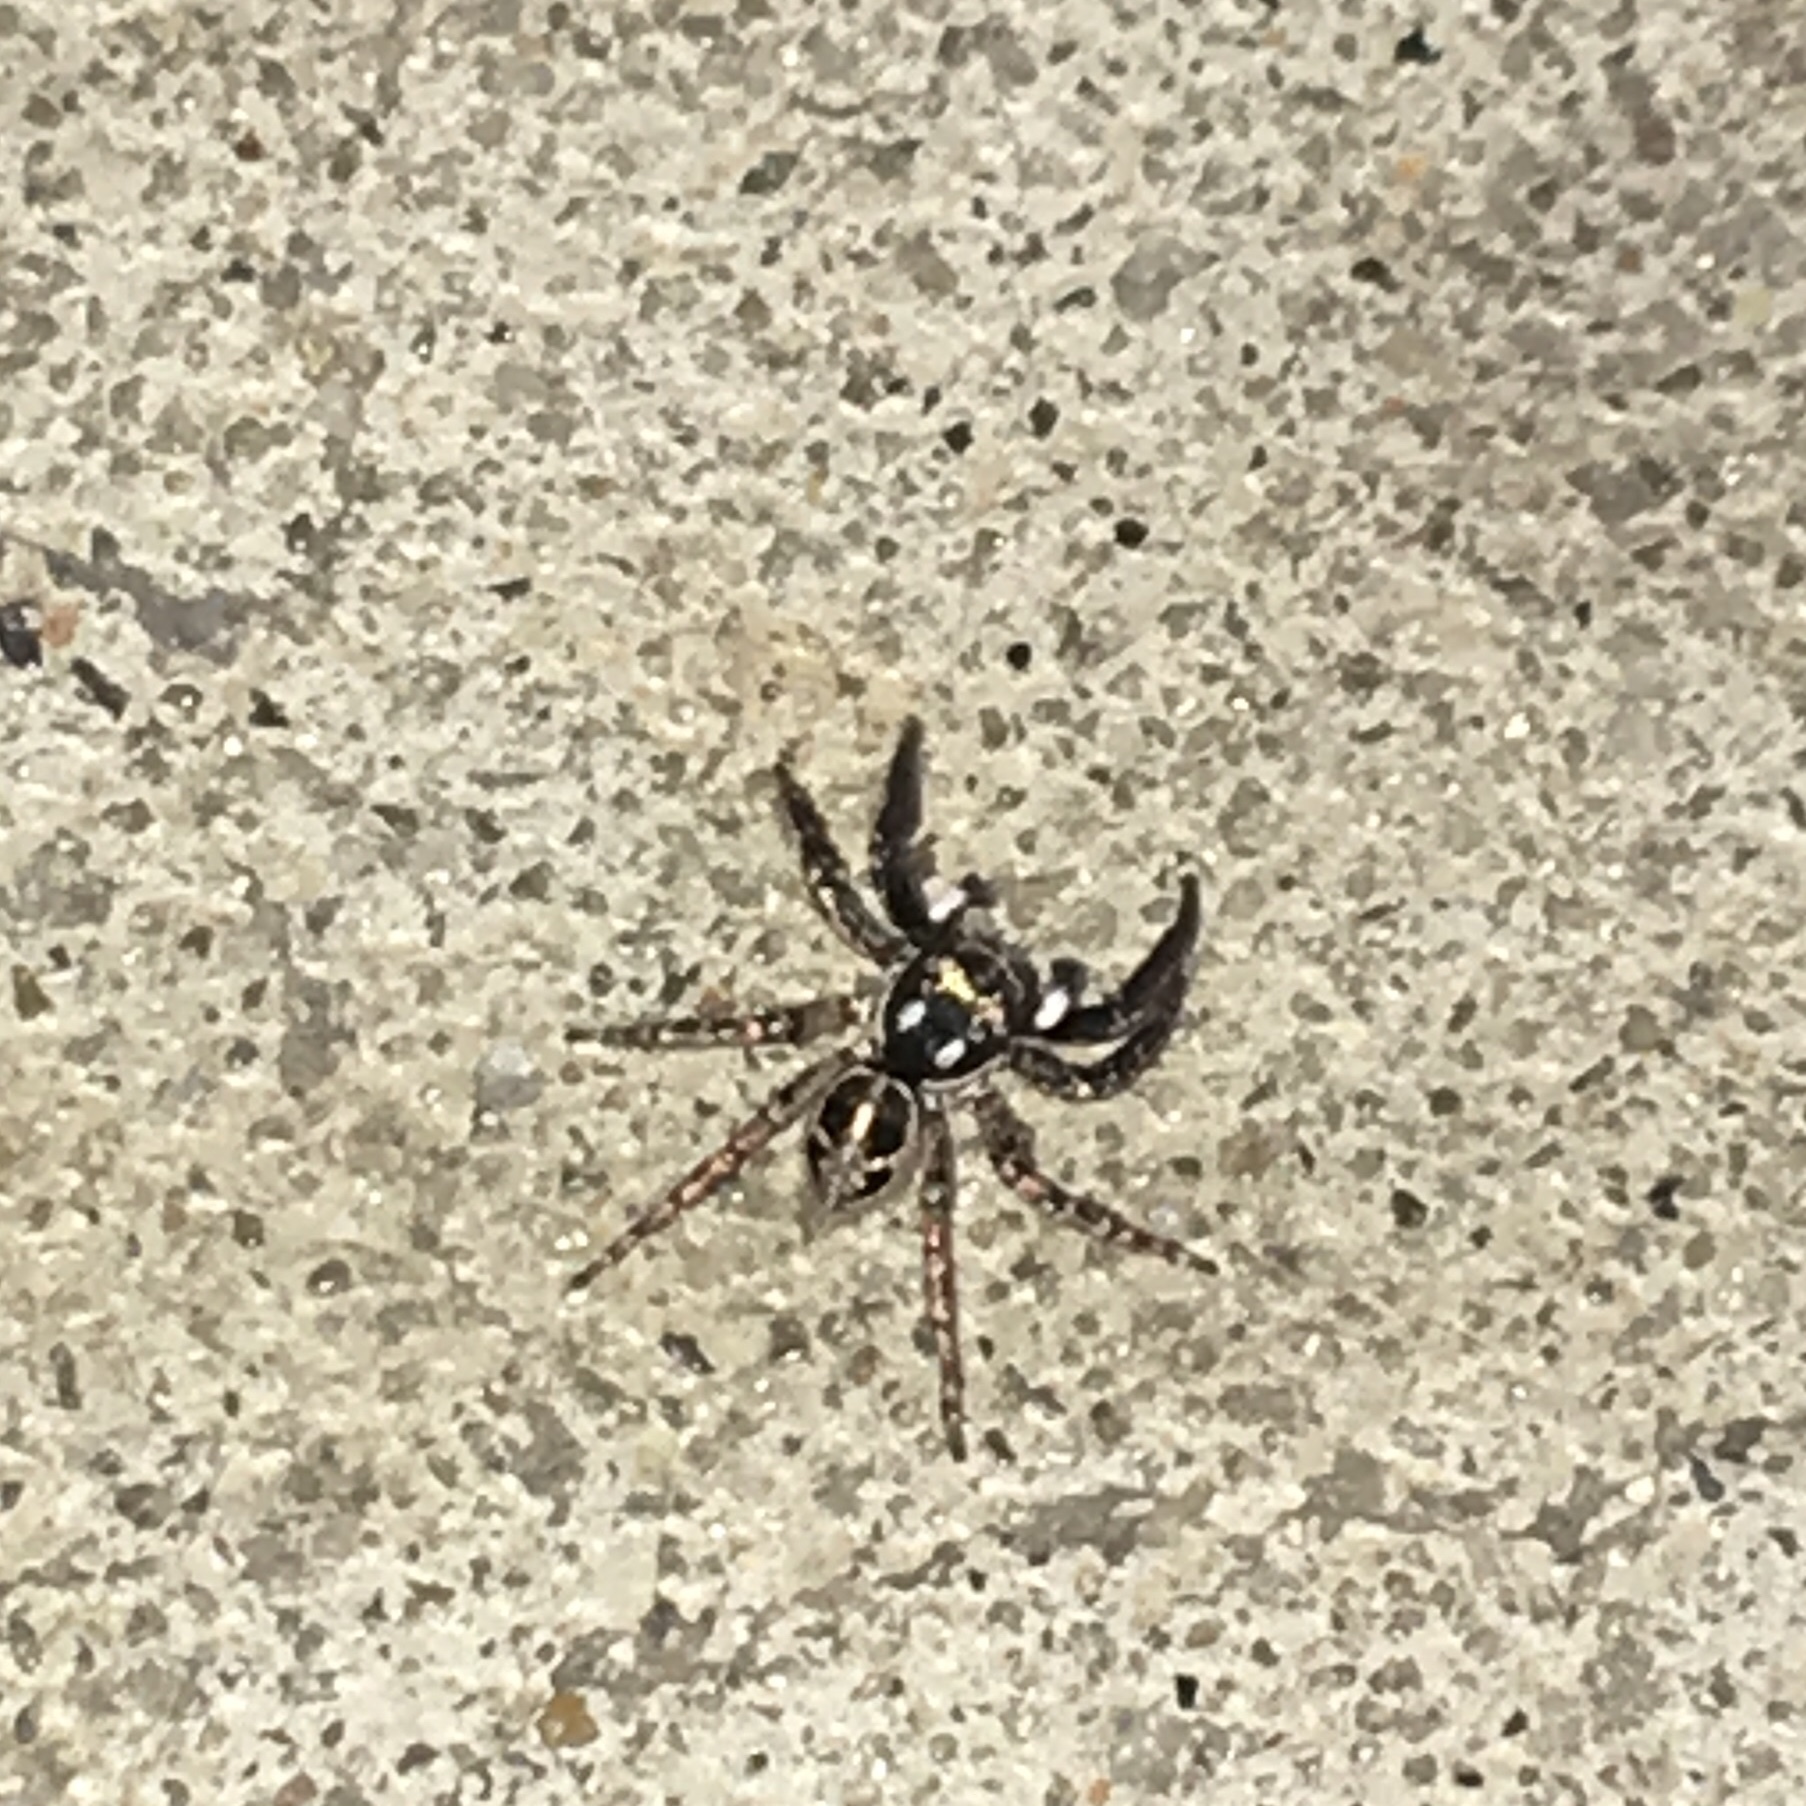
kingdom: Animalia
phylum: Arthropoda
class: Arachnida
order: Araneae
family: Salticidae
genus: Anasaitis
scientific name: Anasaitis canosa
